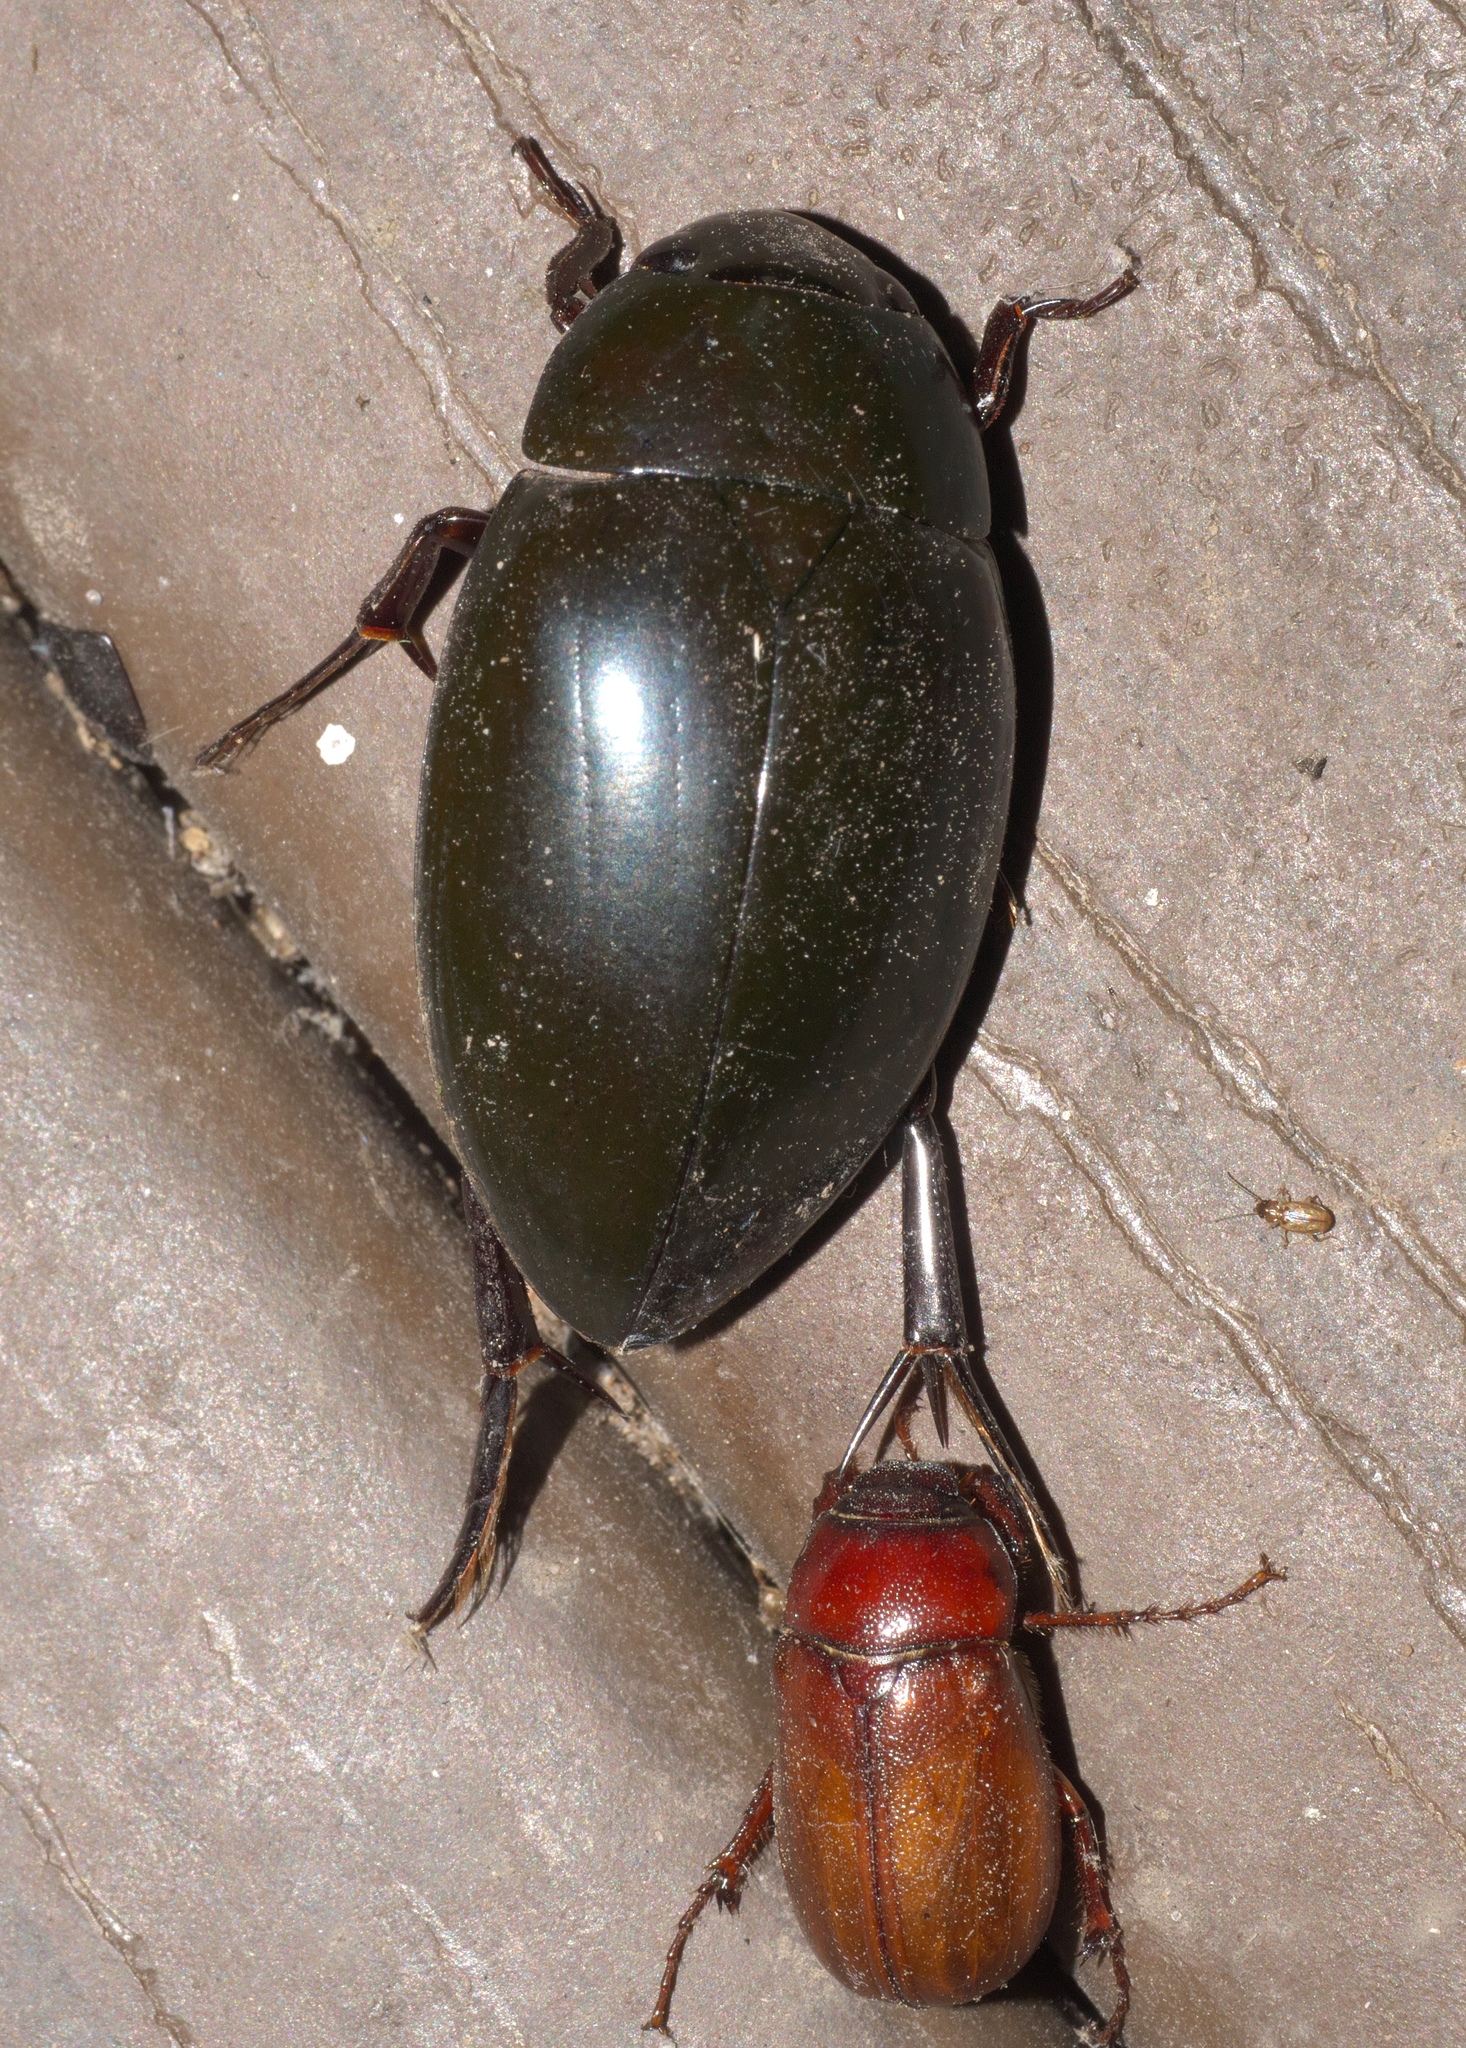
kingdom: Animalia
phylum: Arthropoda
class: Insecta
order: Coleoptera
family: Hydrophilidae
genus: Hydrophilus
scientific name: Hydrophilus ovatus
